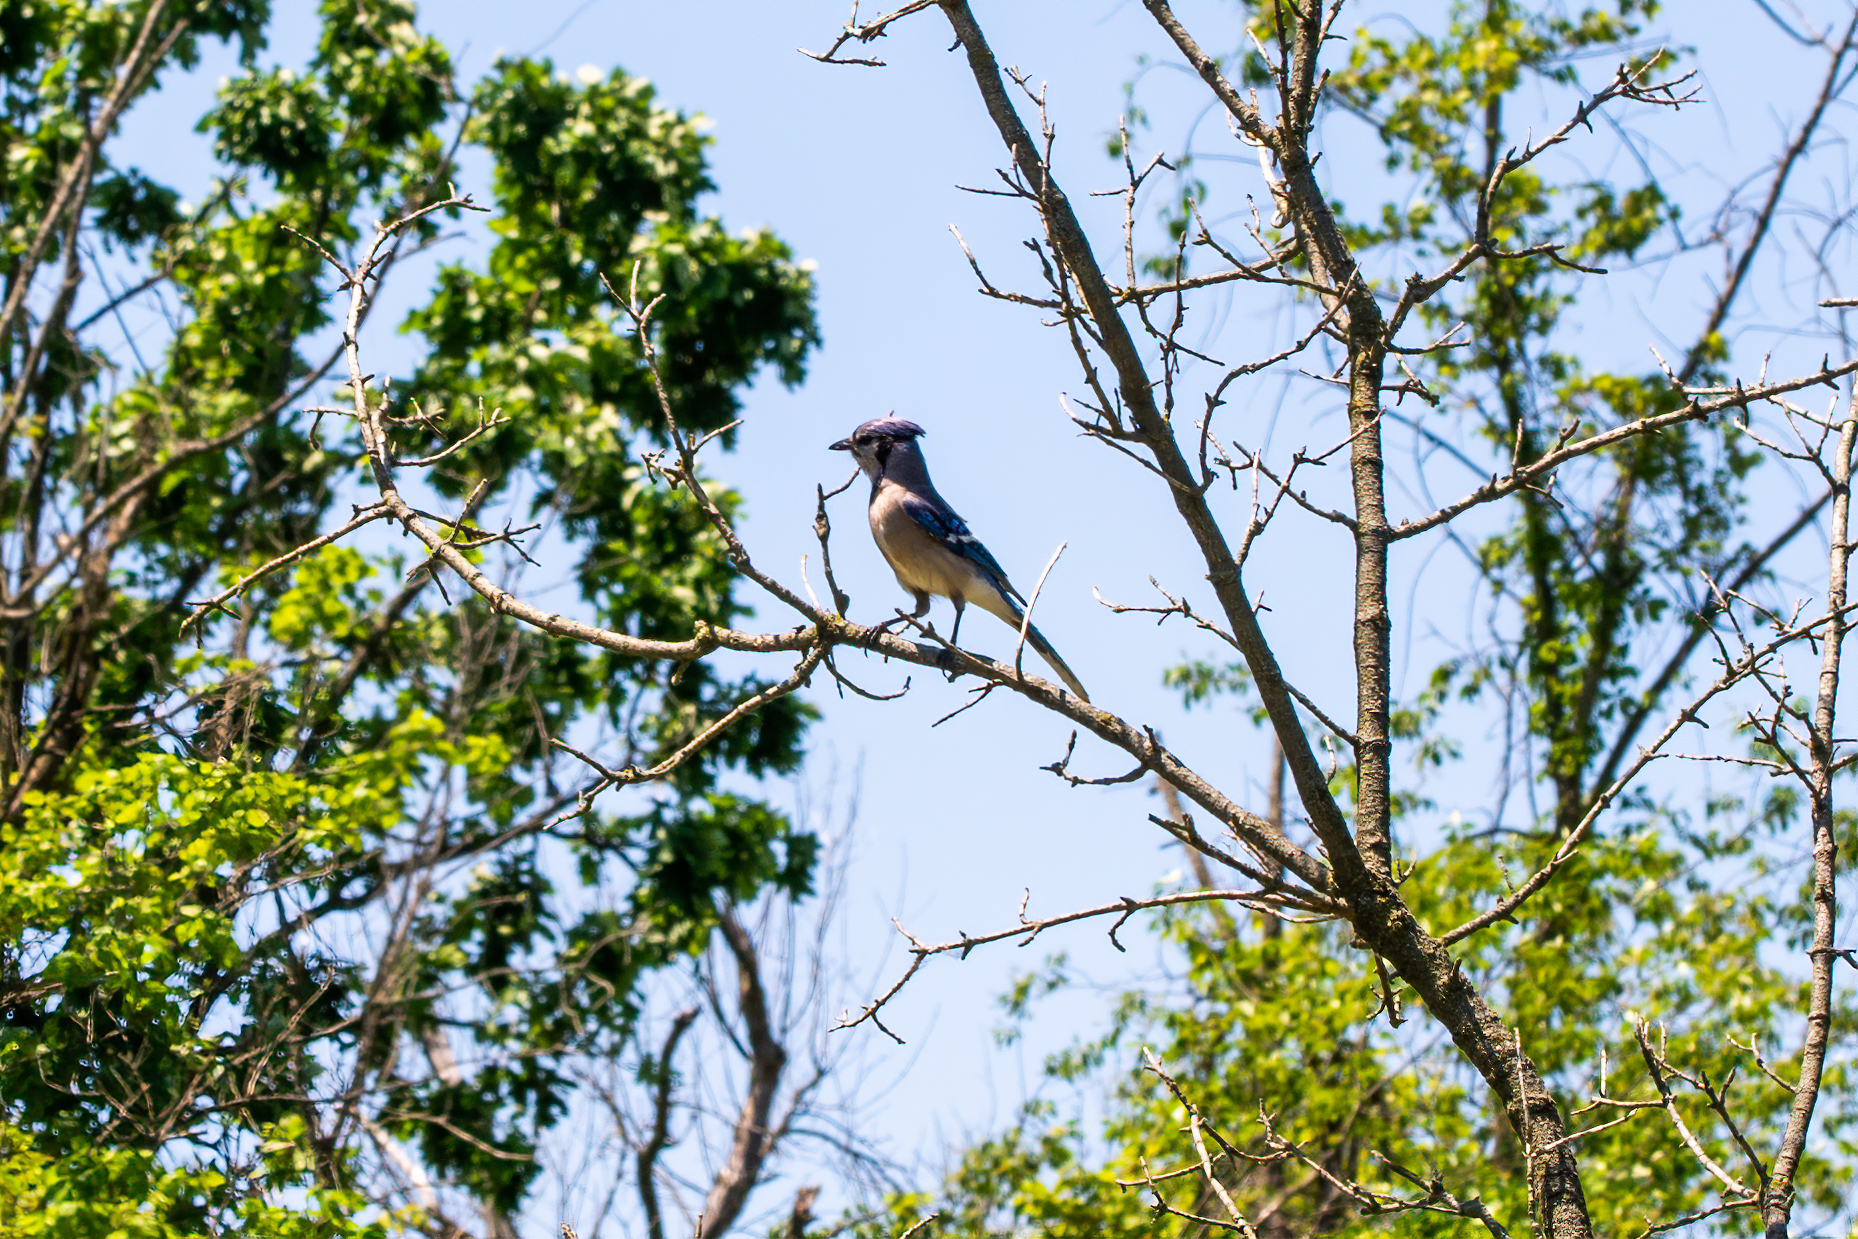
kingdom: Animalia
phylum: Chordata
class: Aves
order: Passeriformes
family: Corvidae
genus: Cyanocitta
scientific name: Cyanocitta cristata
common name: Blue jay
